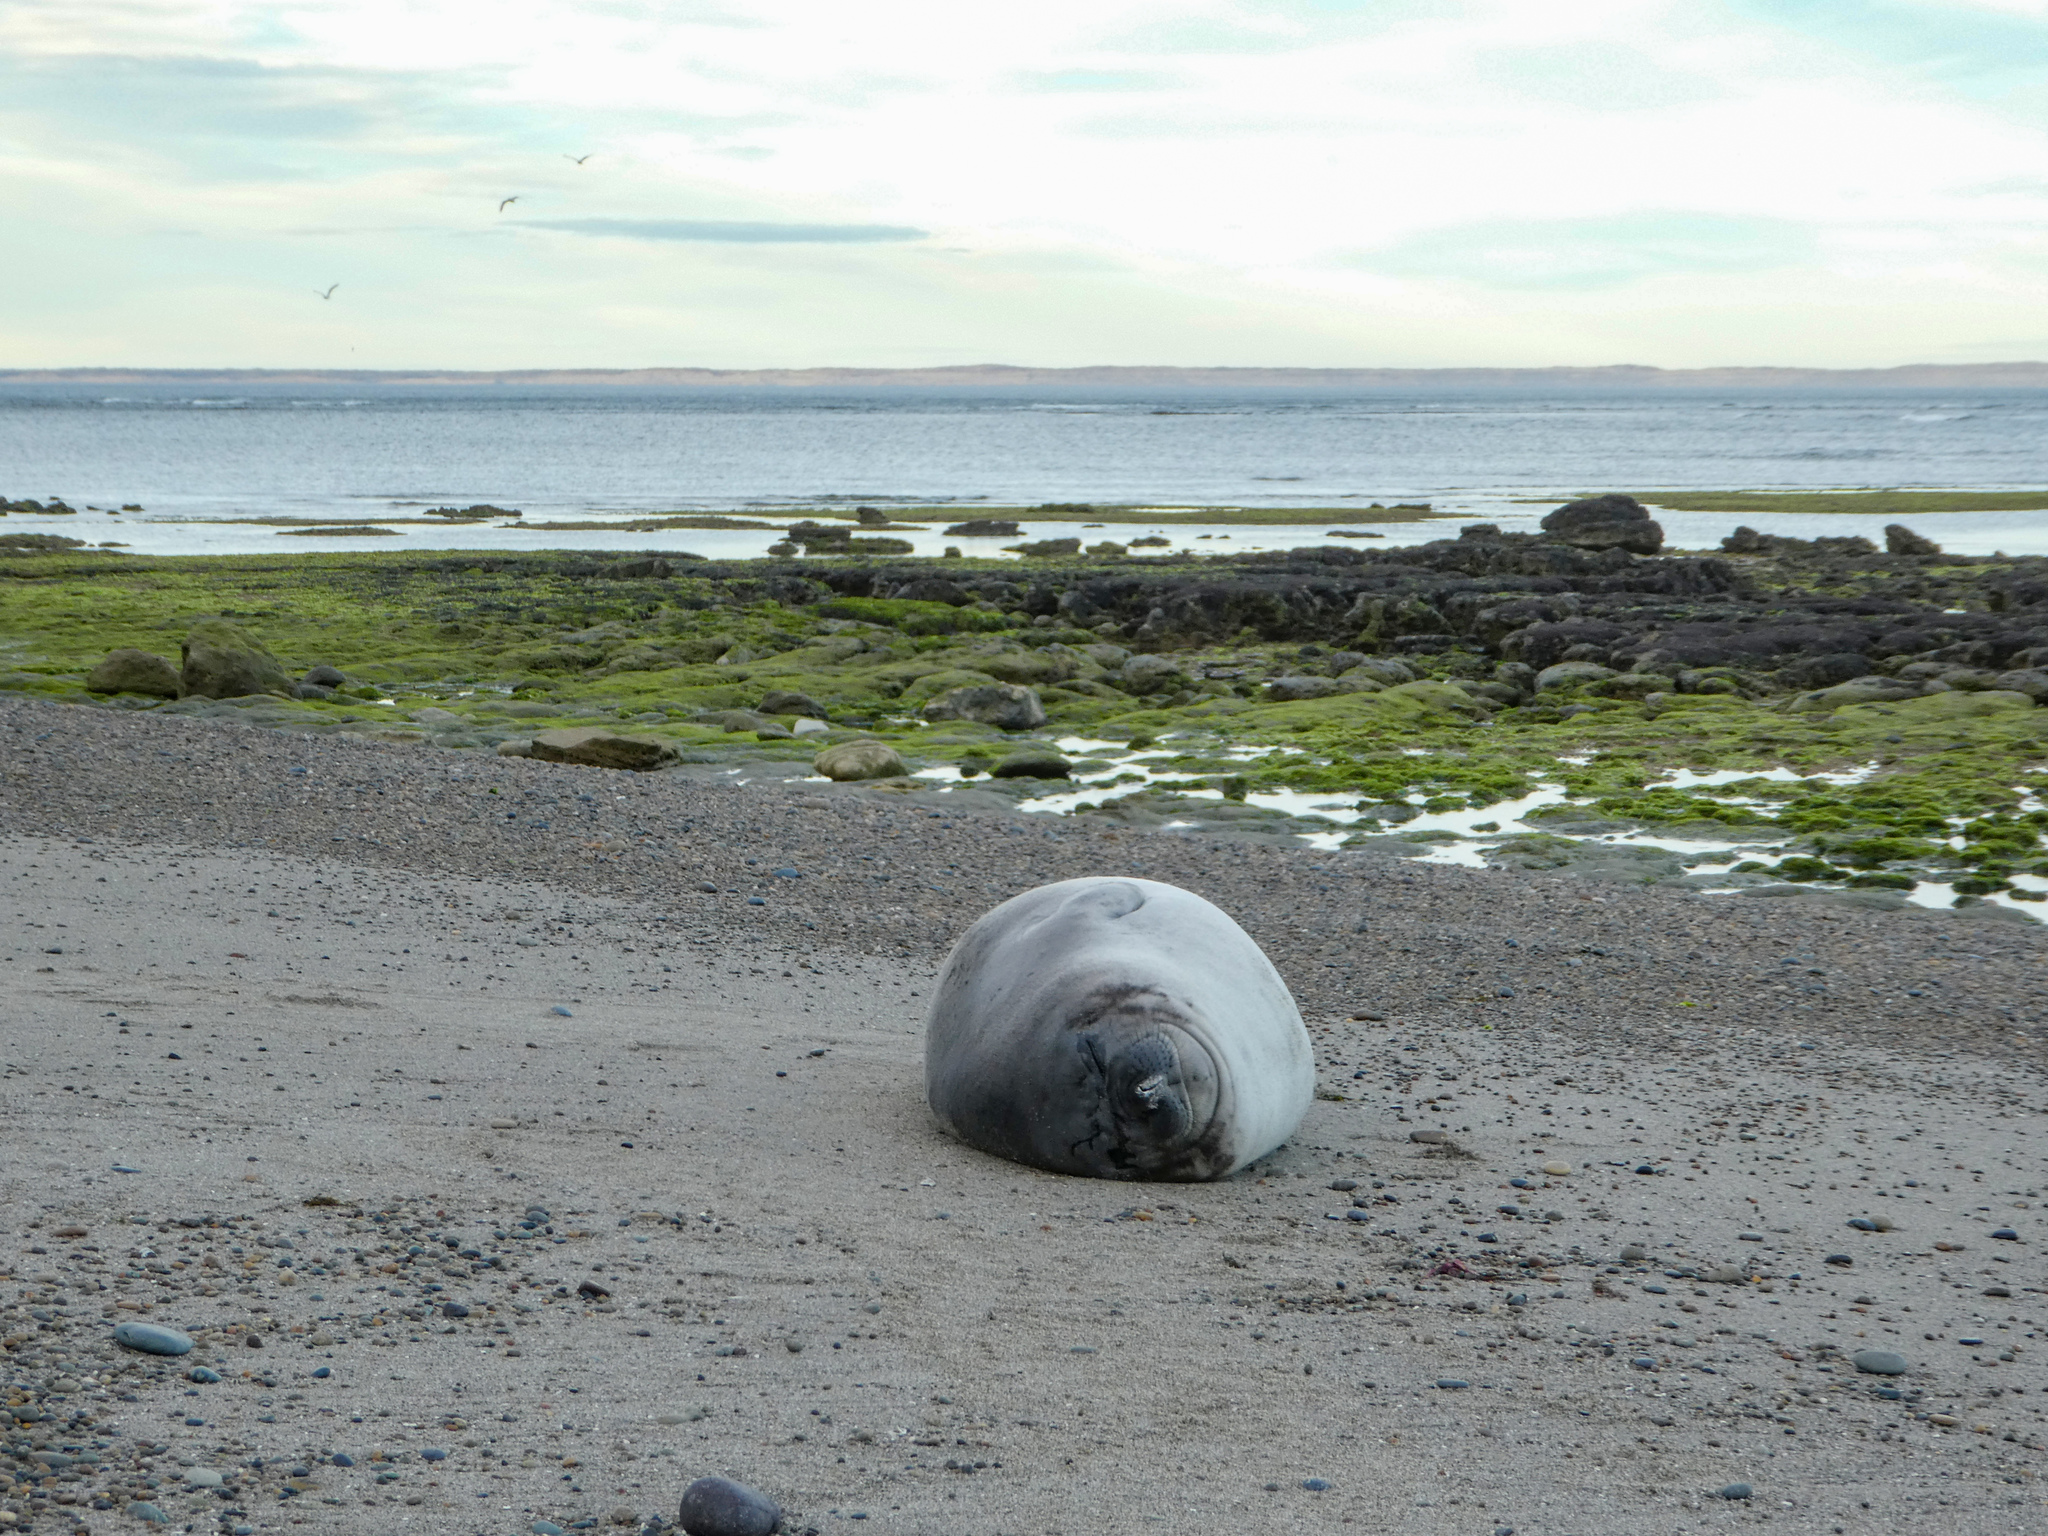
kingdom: Animalia
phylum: Chordata
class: Mammalia
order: Carnivora
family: Phocidae
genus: Mirounga
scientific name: Mirounga leonina
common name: Southern elephant seal
